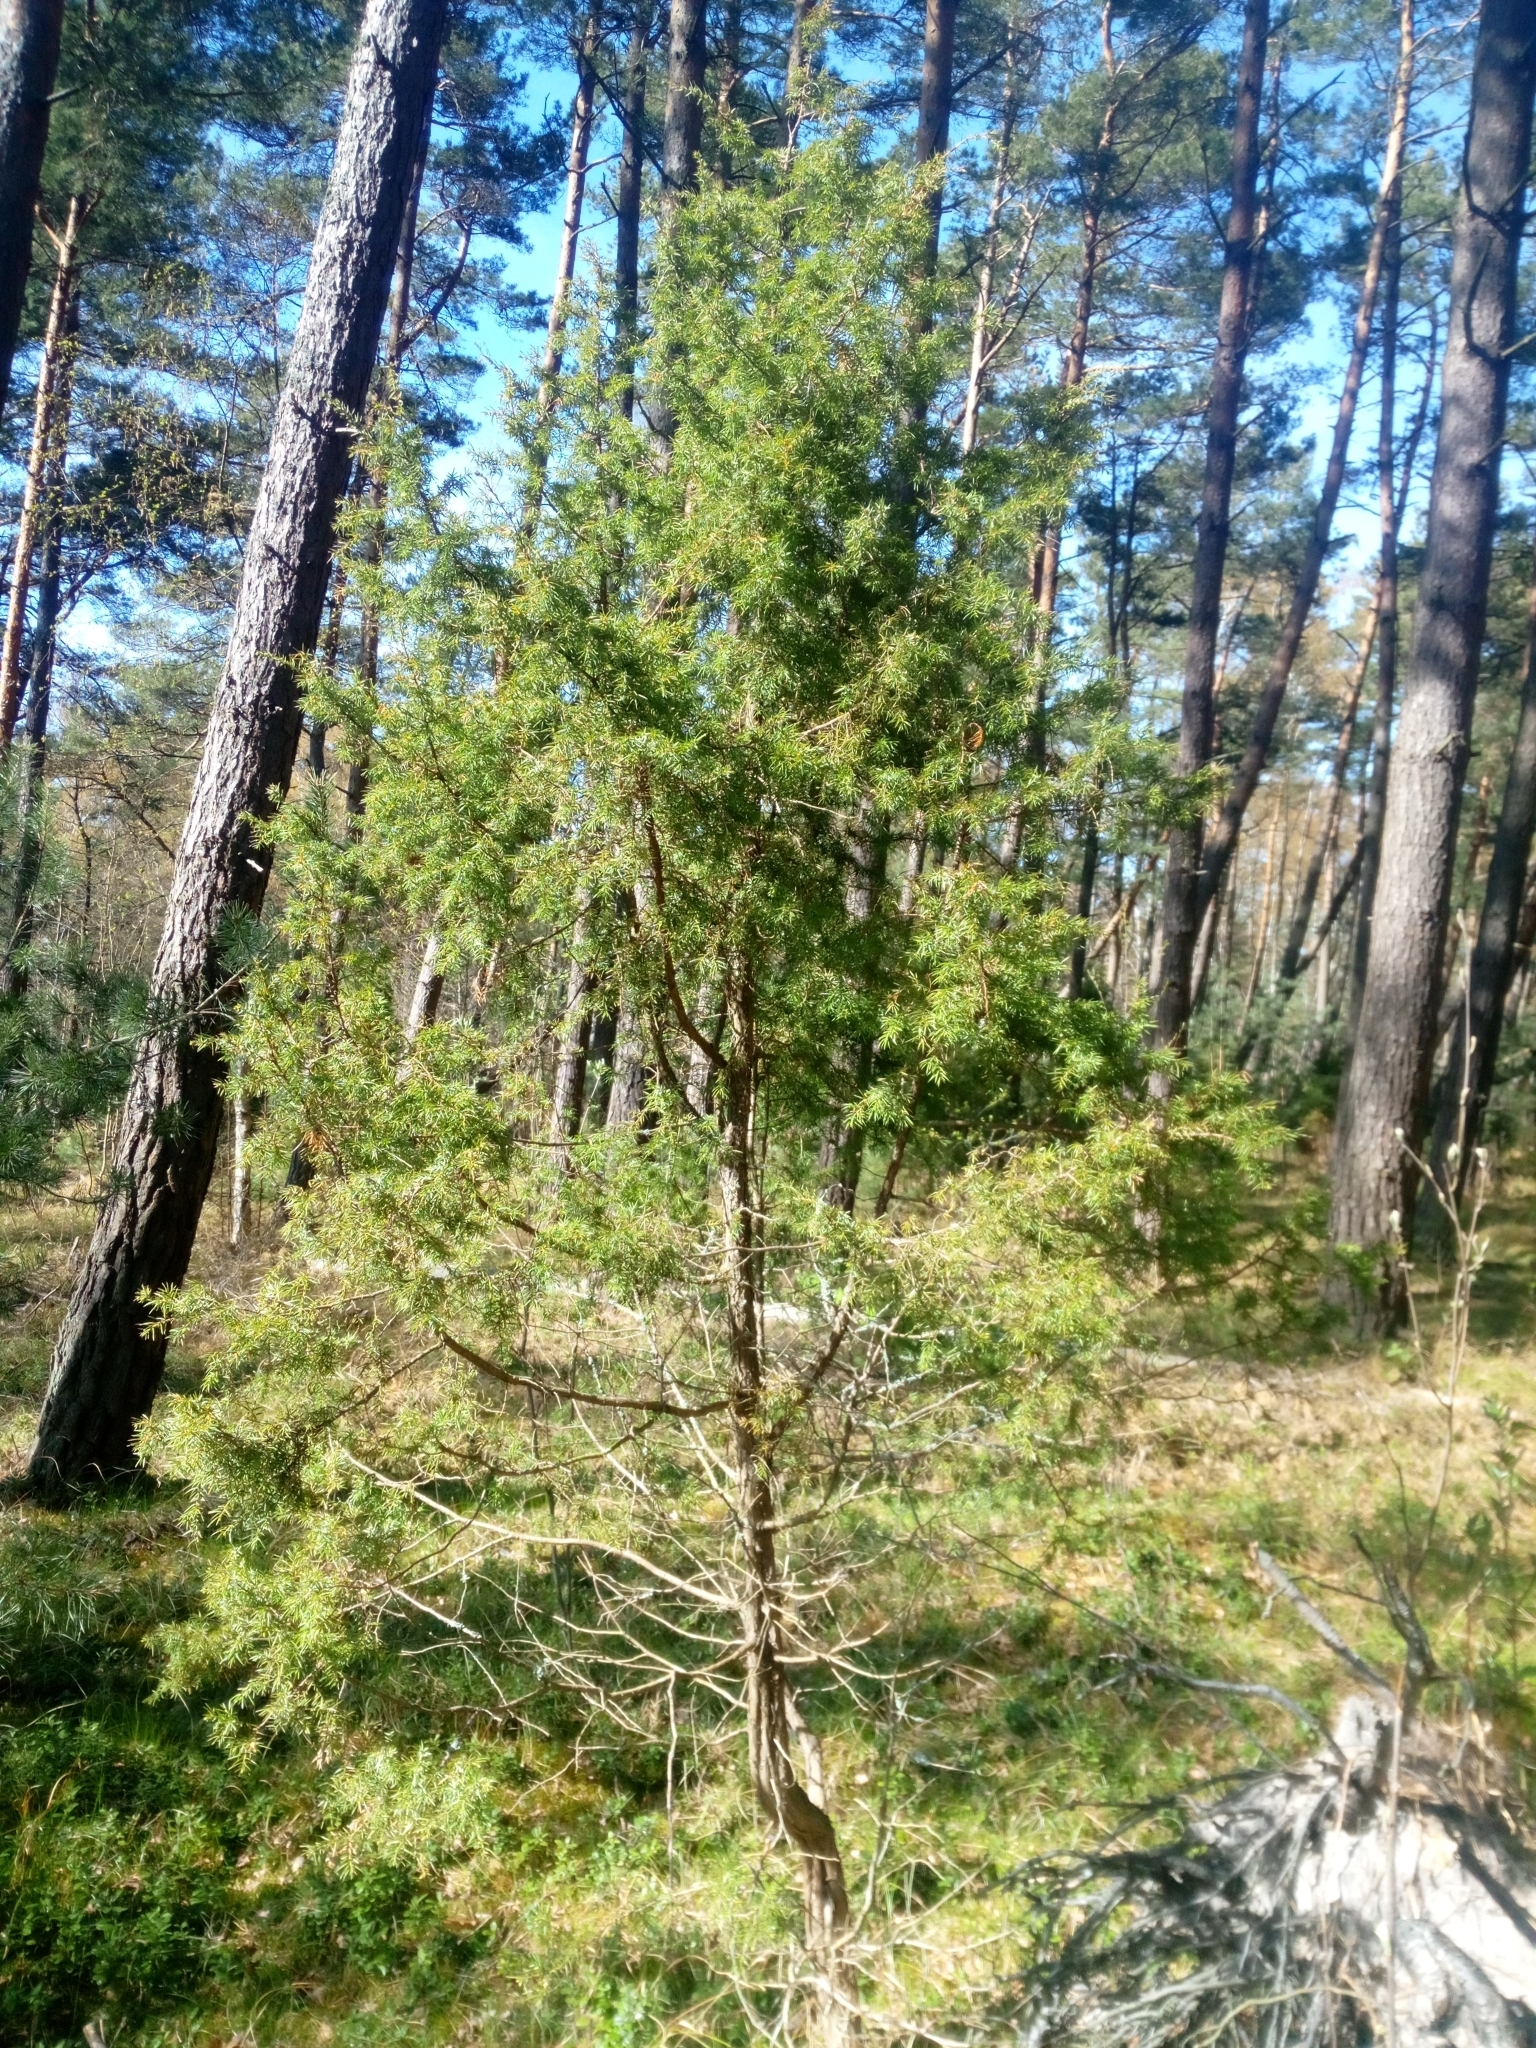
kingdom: Plantae
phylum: Tracheophyta
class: Pinopsida
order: Pinales
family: Cupressaceae
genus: Juniperus
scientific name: Juniperus communis
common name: Common juniper
